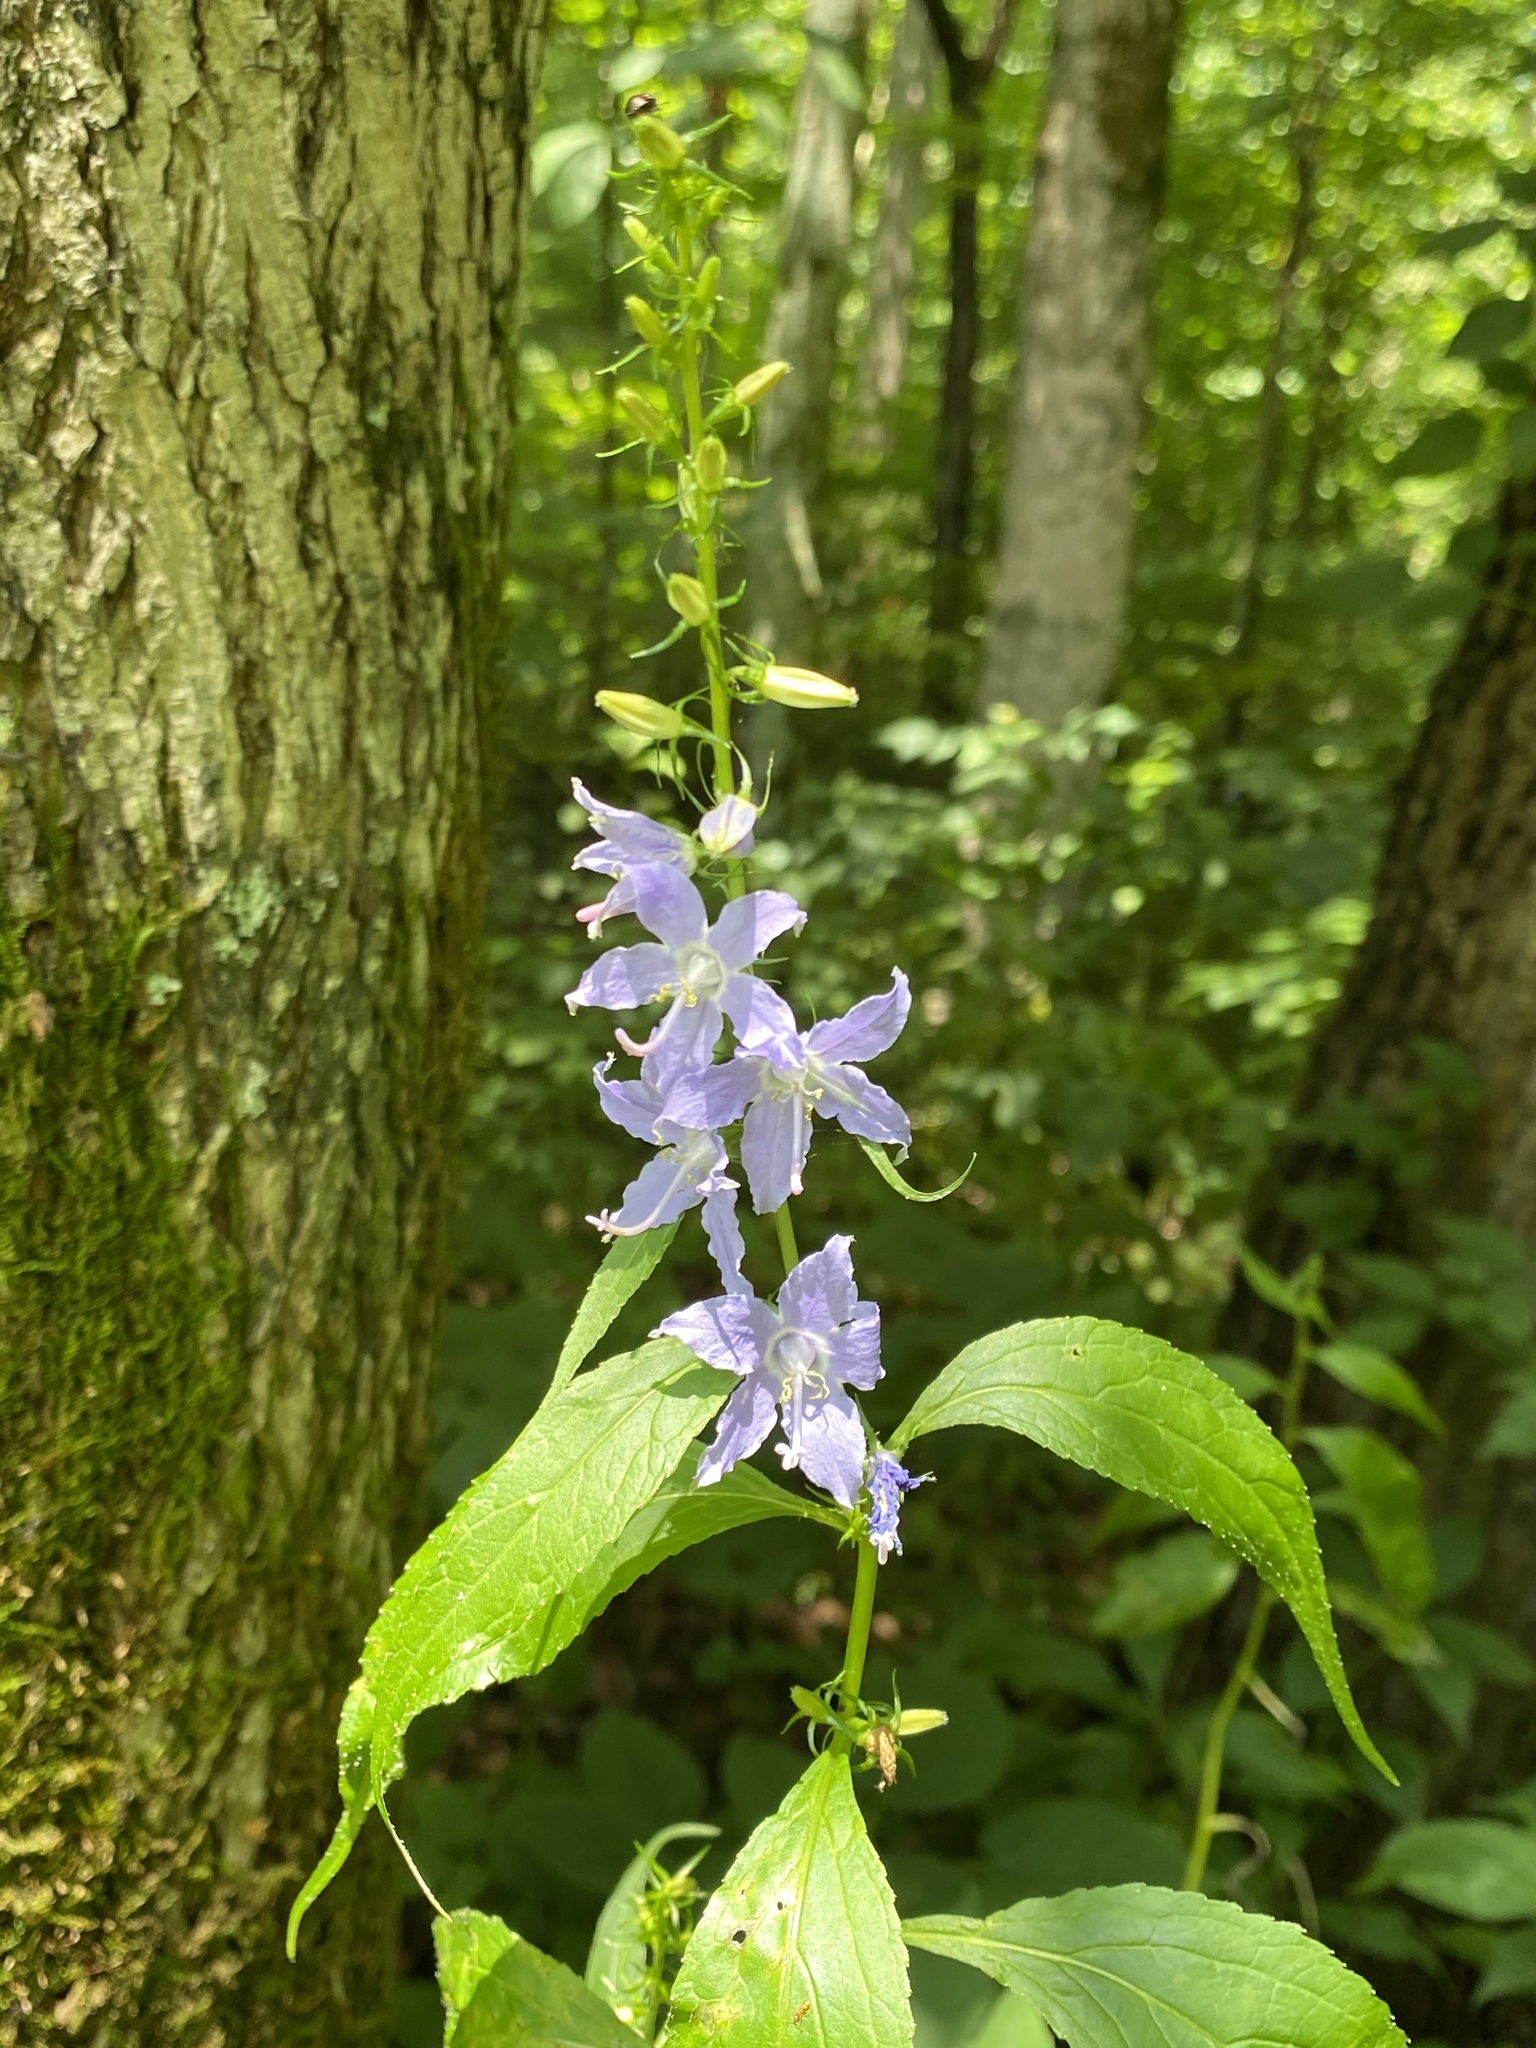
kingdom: Plantae
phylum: Tracheophyta
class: Magnoliopsida
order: Asterales
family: Campanulaceae
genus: Campanulastrum
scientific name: Campanulastrum americanum
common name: American bellflower
